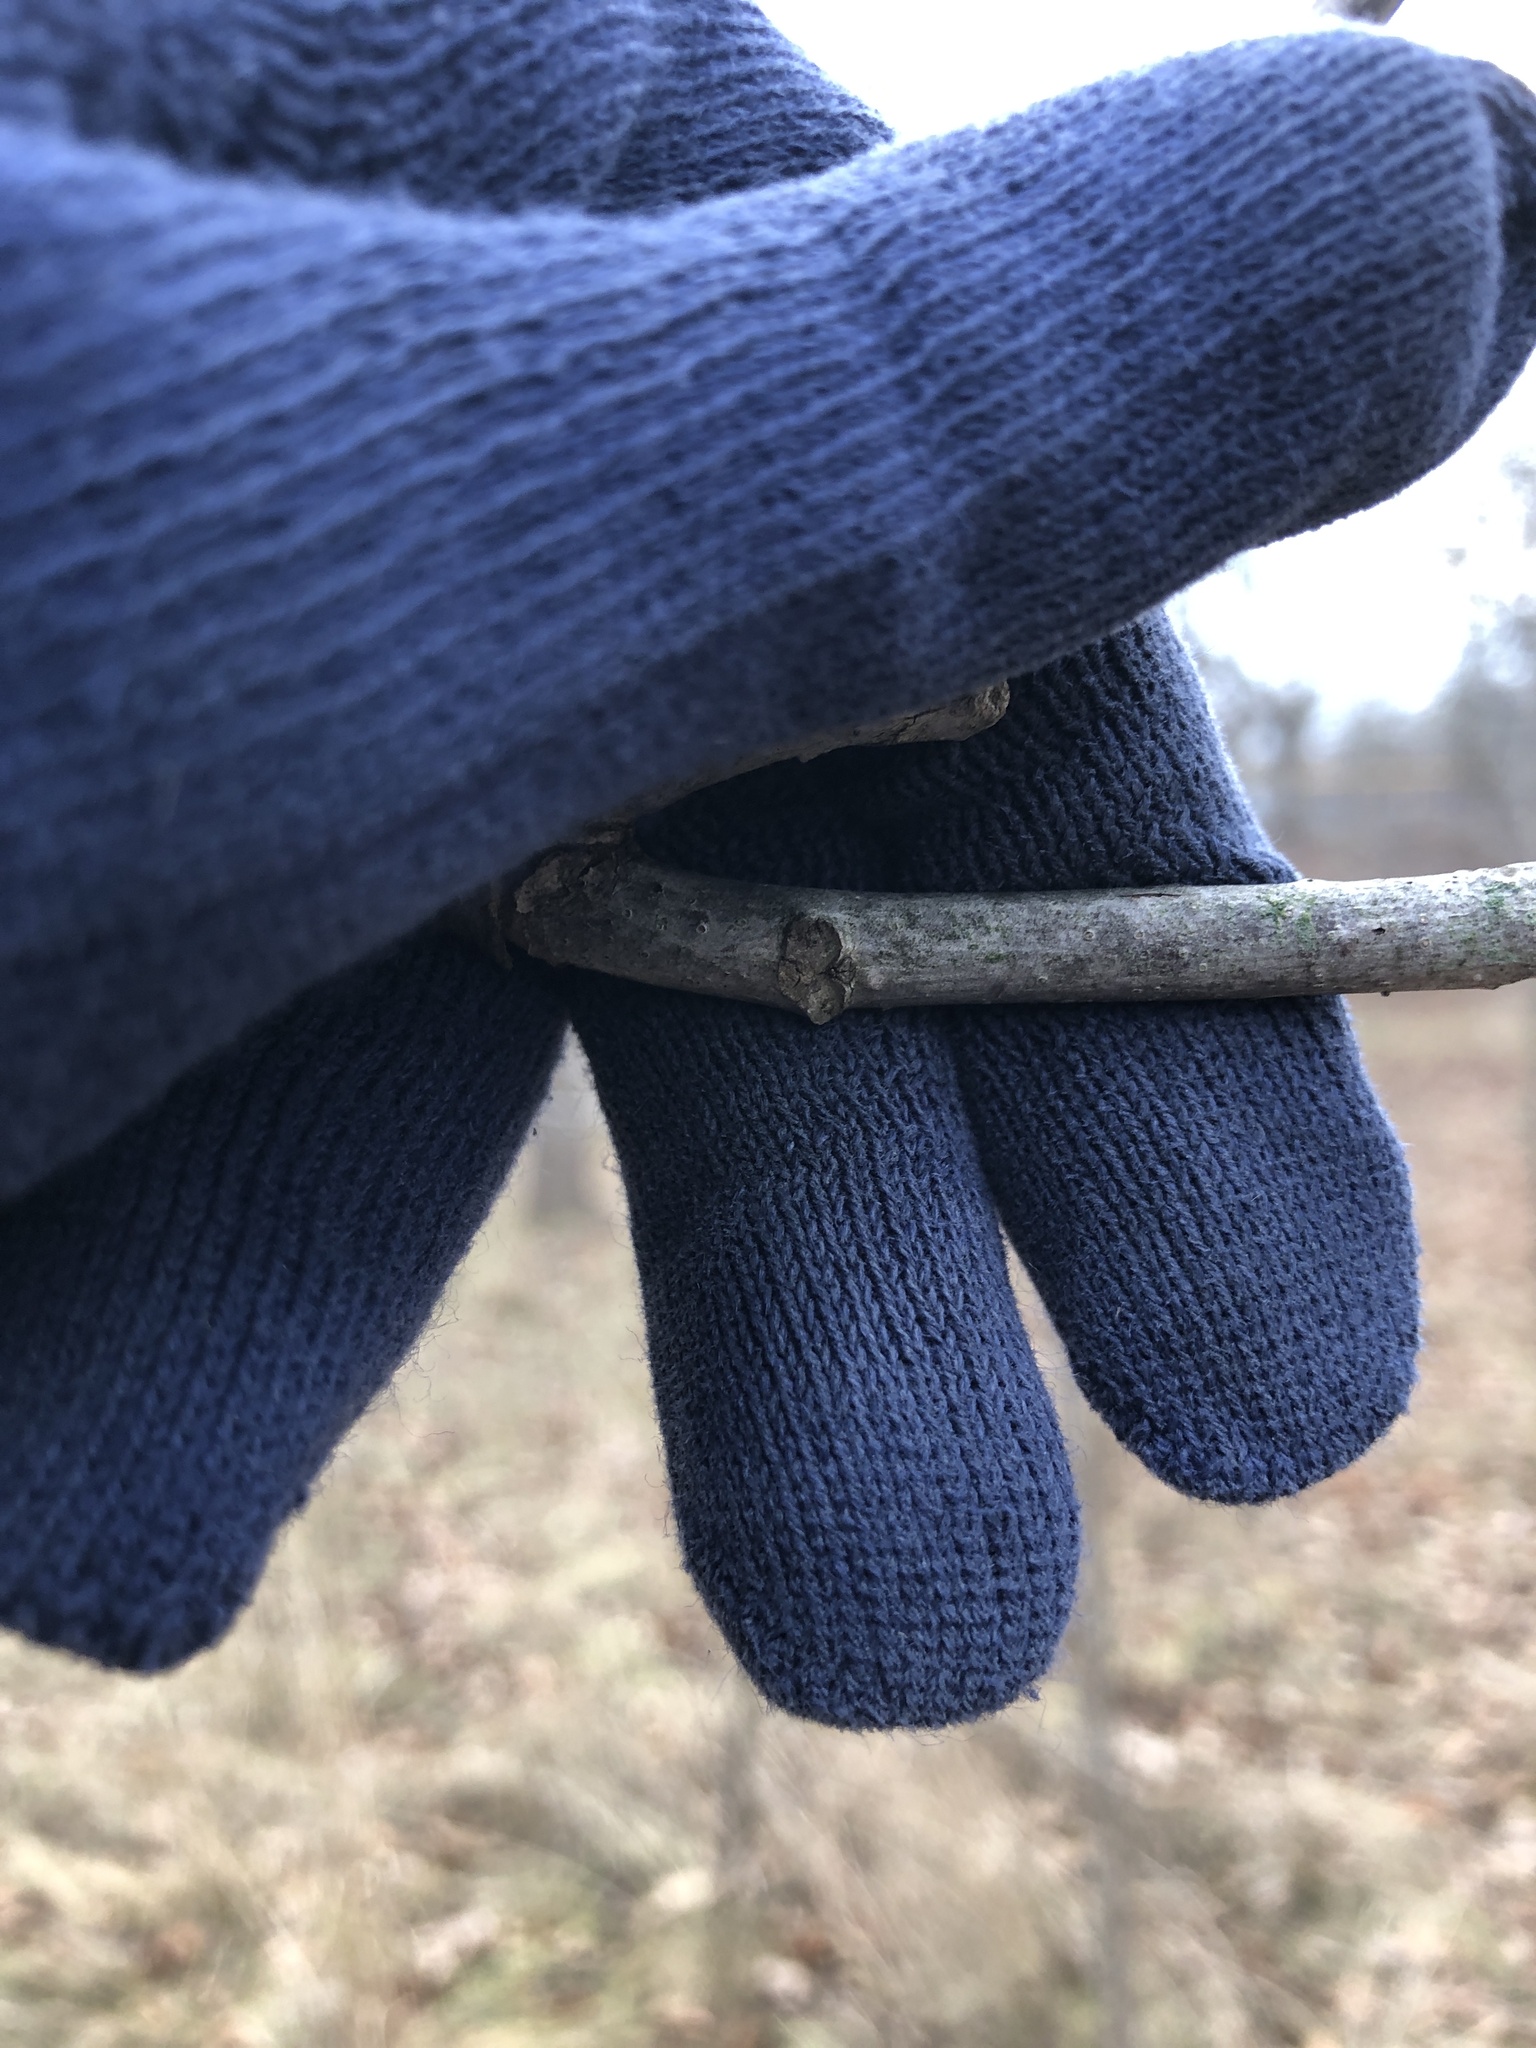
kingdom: Plantae
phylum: Tracheophyta
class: Magnoliopsida
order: Fagales
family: Juglandaceae
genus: Juglans
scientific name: Juglans nigra
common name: Black walnut
